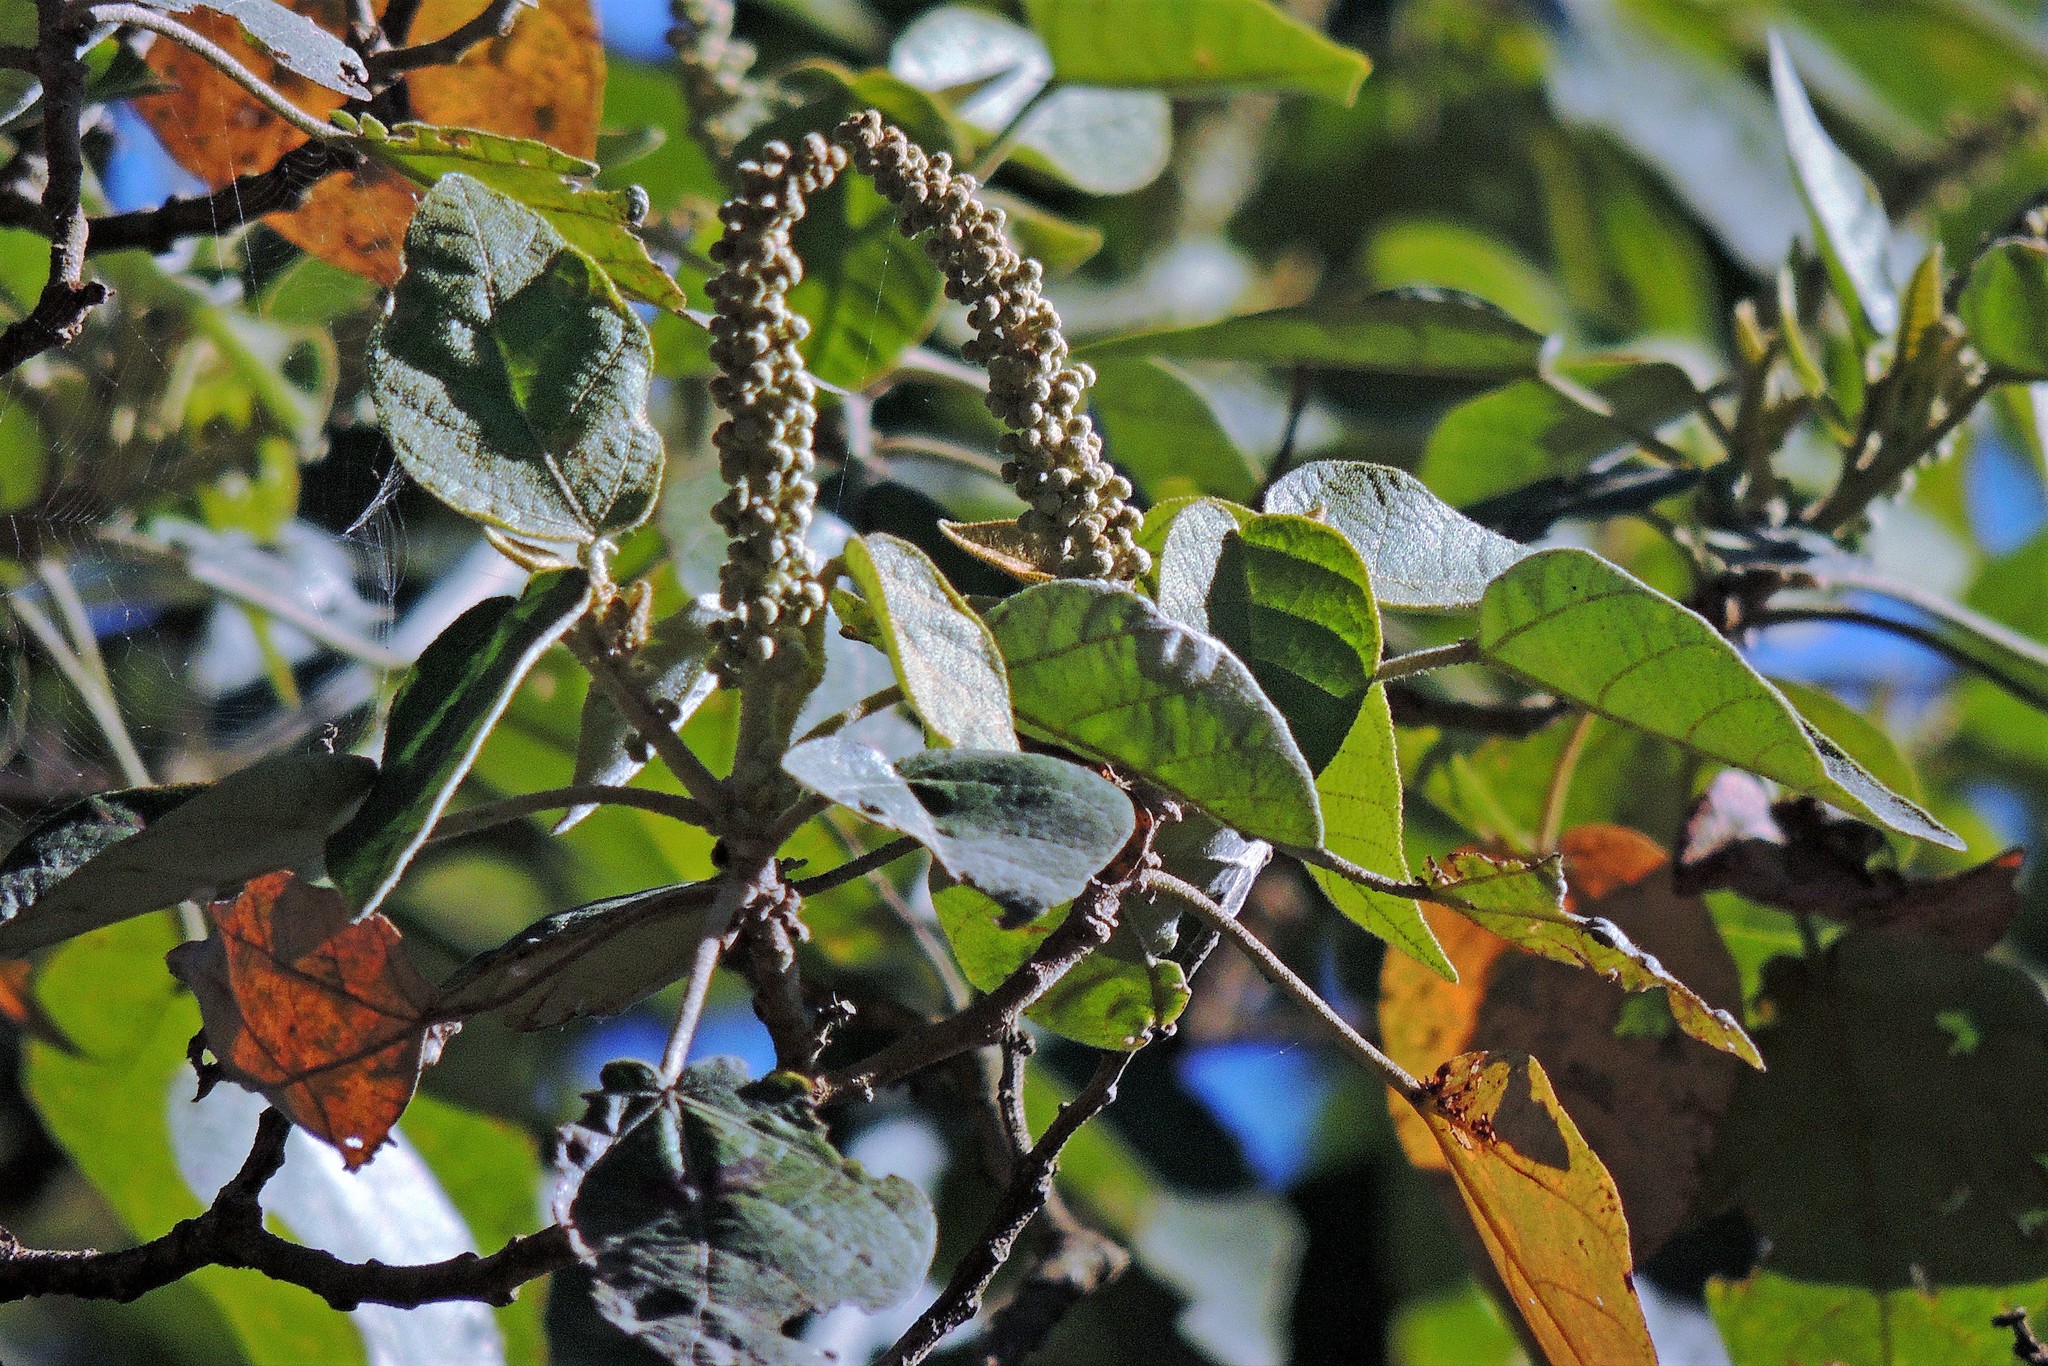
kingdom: Plantae
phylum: Tracheophyta
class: Magnoliopsida
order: Malpighiales
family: Euphorbiaceae
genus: Croton
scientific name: Croton piluliferus
